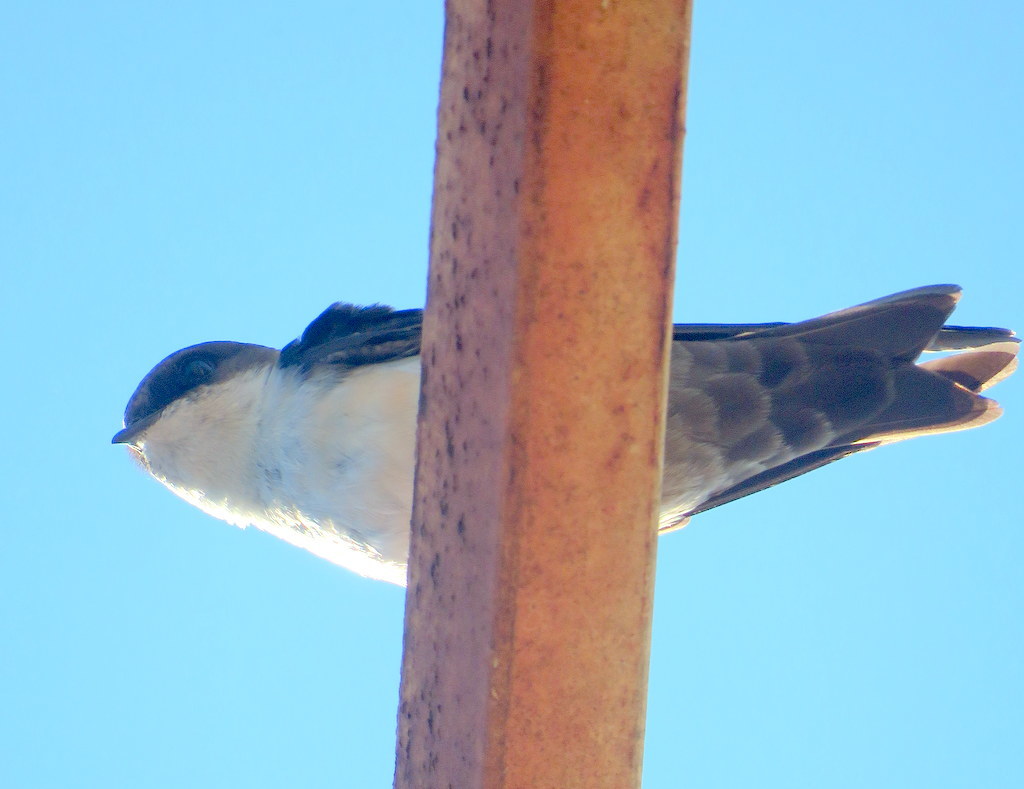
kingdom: Animalia
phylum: Chordata
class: Aves
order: Passeriformes
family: Hirundinidae
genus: Notiochelidon
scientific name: Notiochelidon cyanoleuca
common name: Blue-and-white swallow
